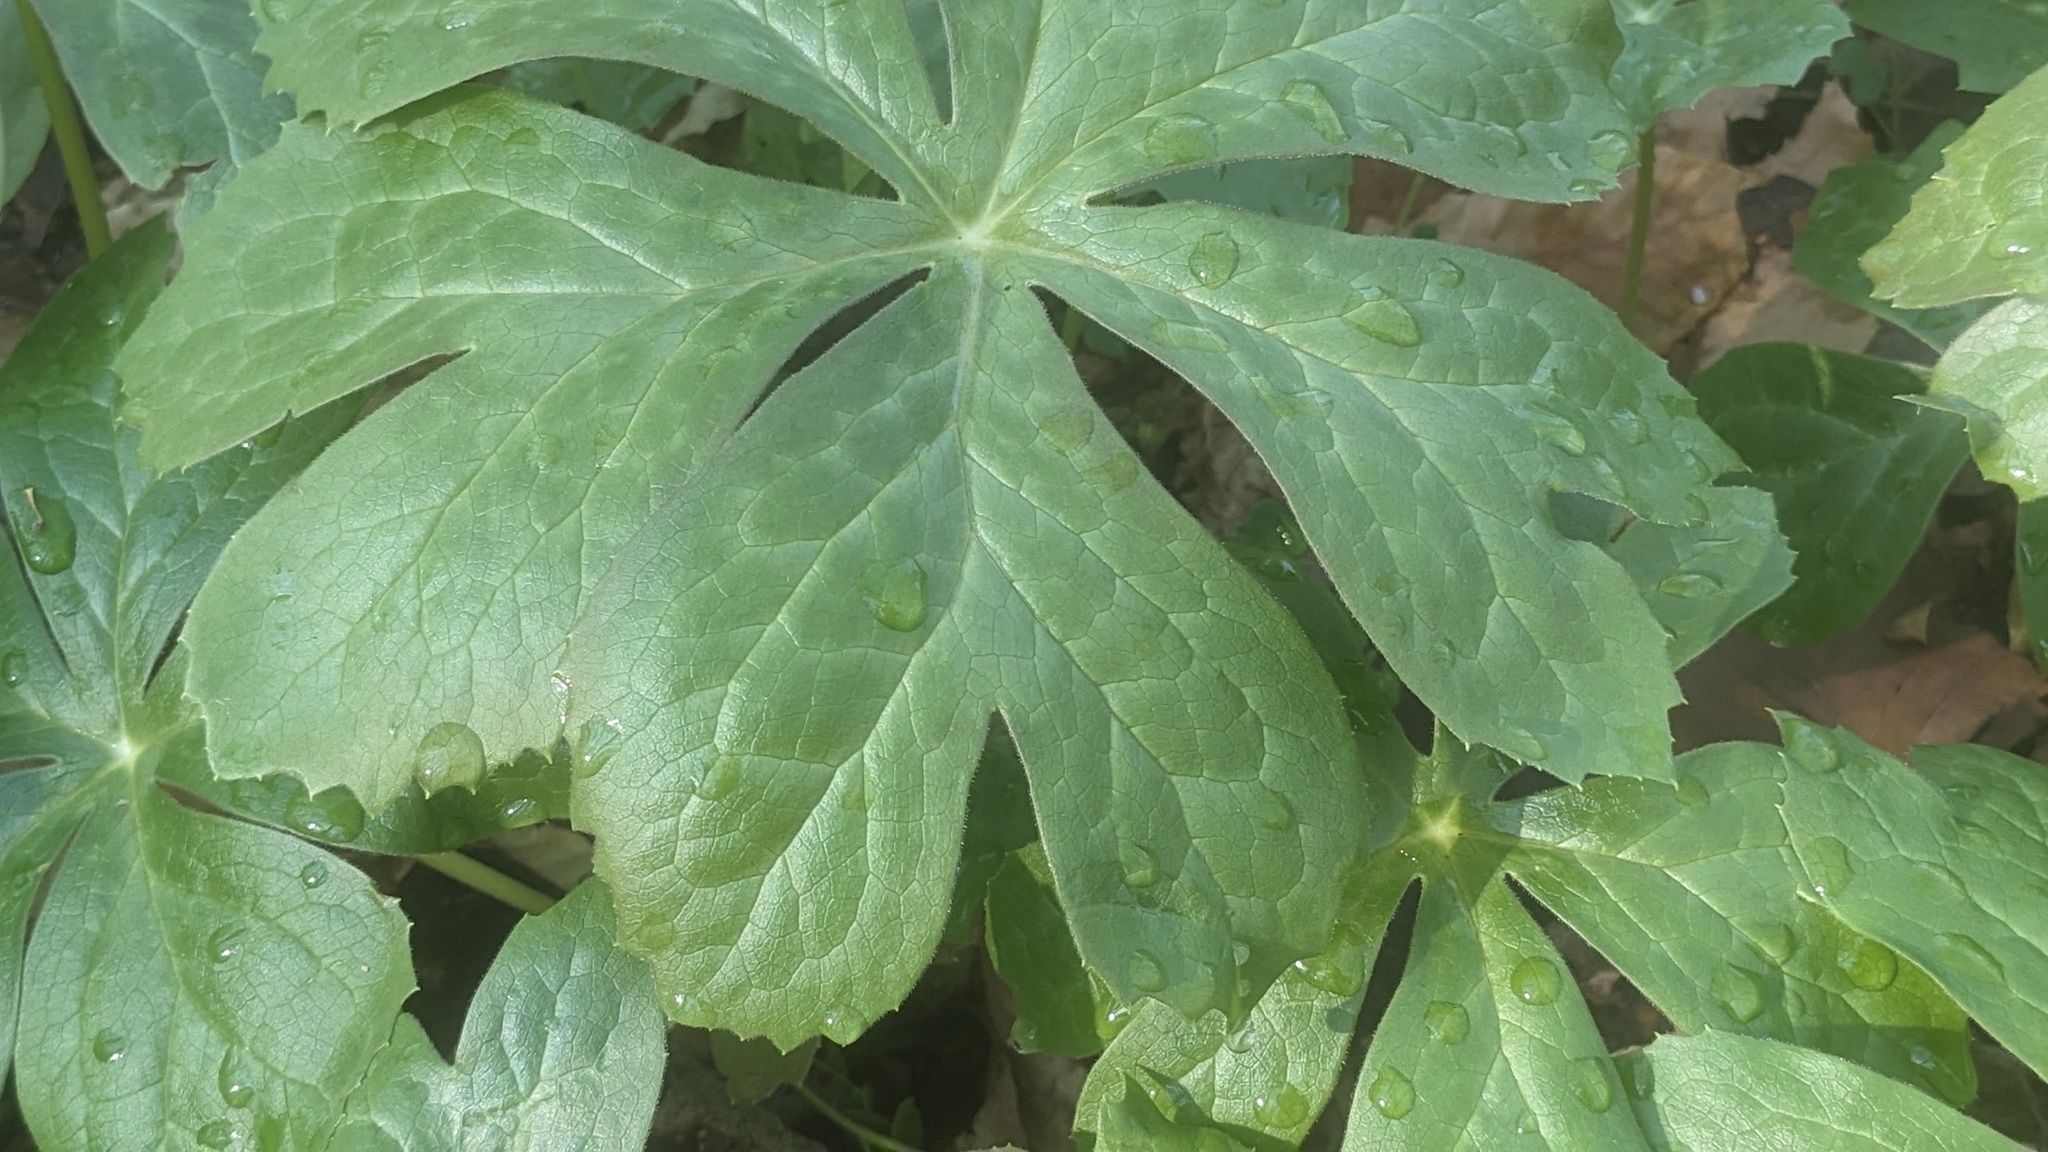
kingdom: Plantae
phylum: Tracheophyta
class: Magnoliopsida
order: Ranunculales
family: Berberidaceae
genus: Podophyllum
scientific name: Podophyllum peltatum
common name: Wild mandrake
